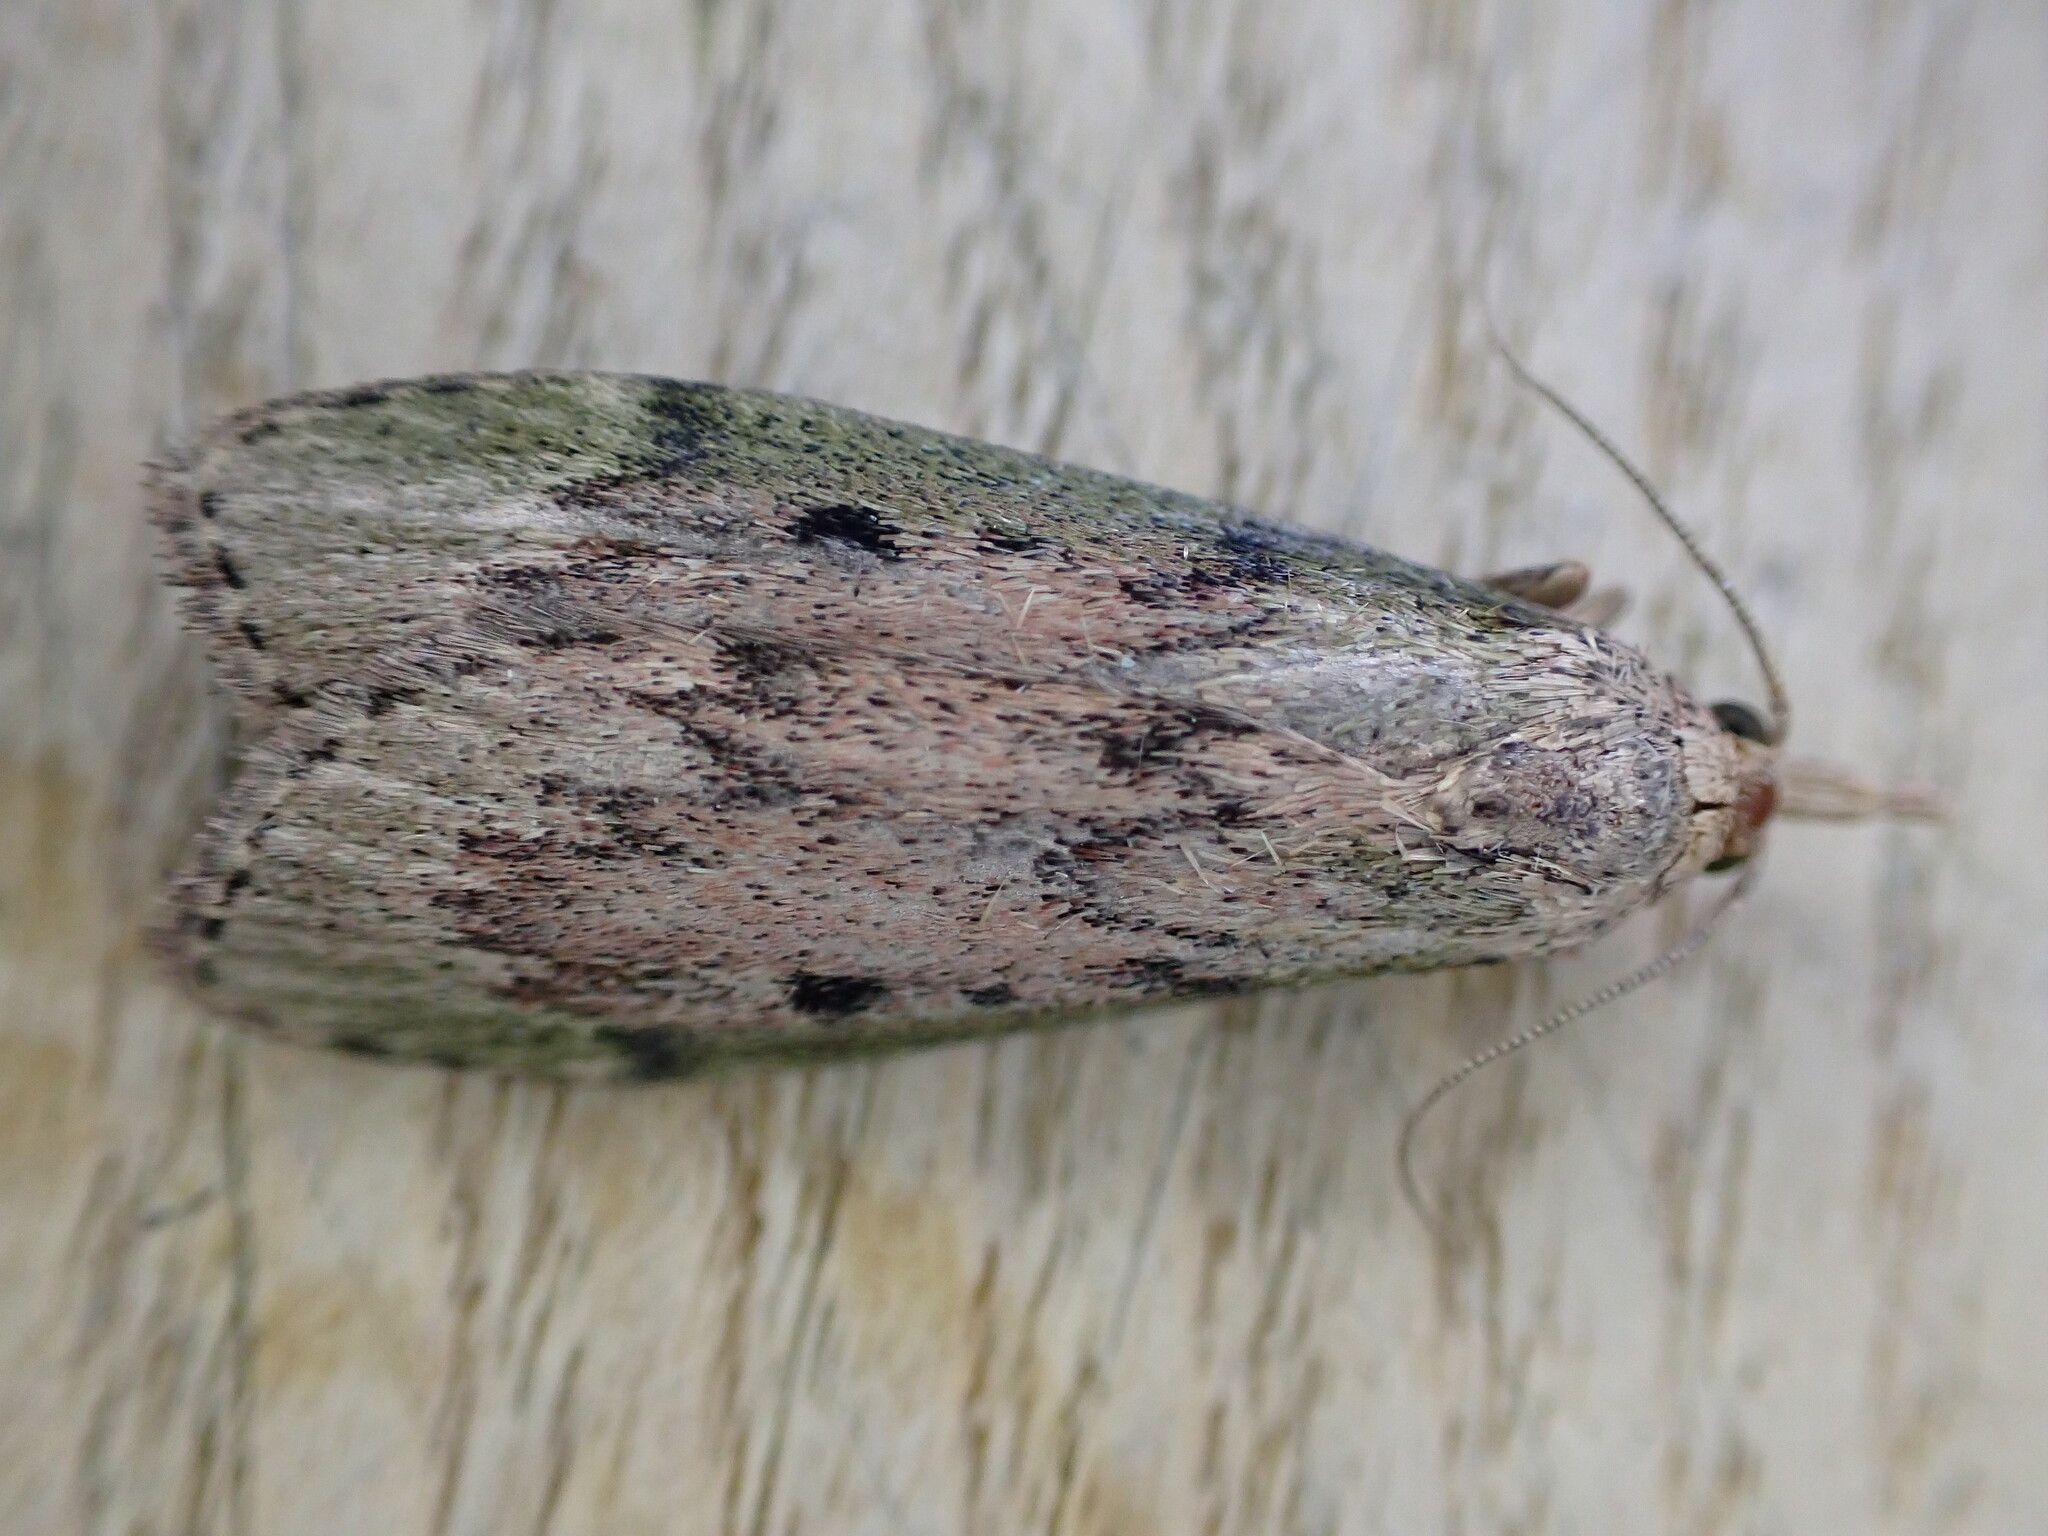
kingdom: Animalia
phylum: Arthropoda
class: Insecta
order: Lepidoptera
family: Pyralidae
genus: Aphomia
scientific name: Aphomia sociella
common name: Bee moth
